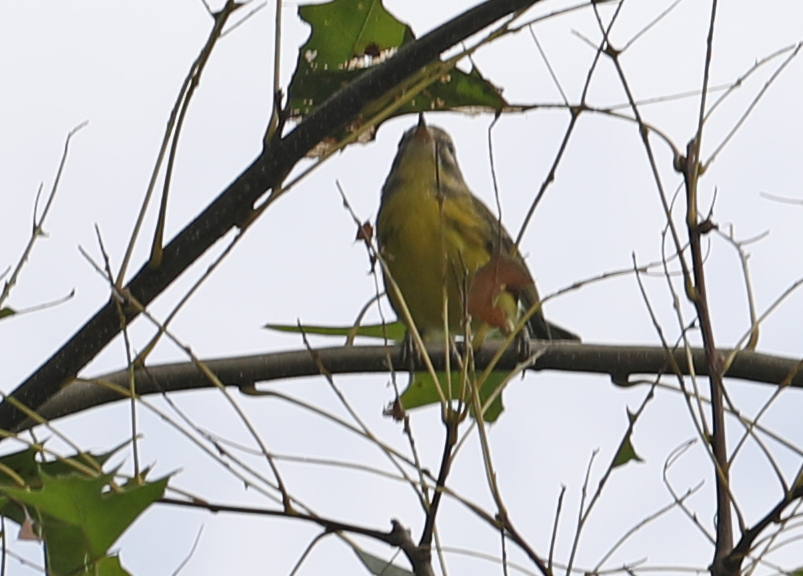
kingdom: Animalia
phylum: Chordata
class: Aves
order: Passeriformes
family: Parulidae
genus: Setophaga
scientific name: Setophaga discolor
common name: Prairie warbler
